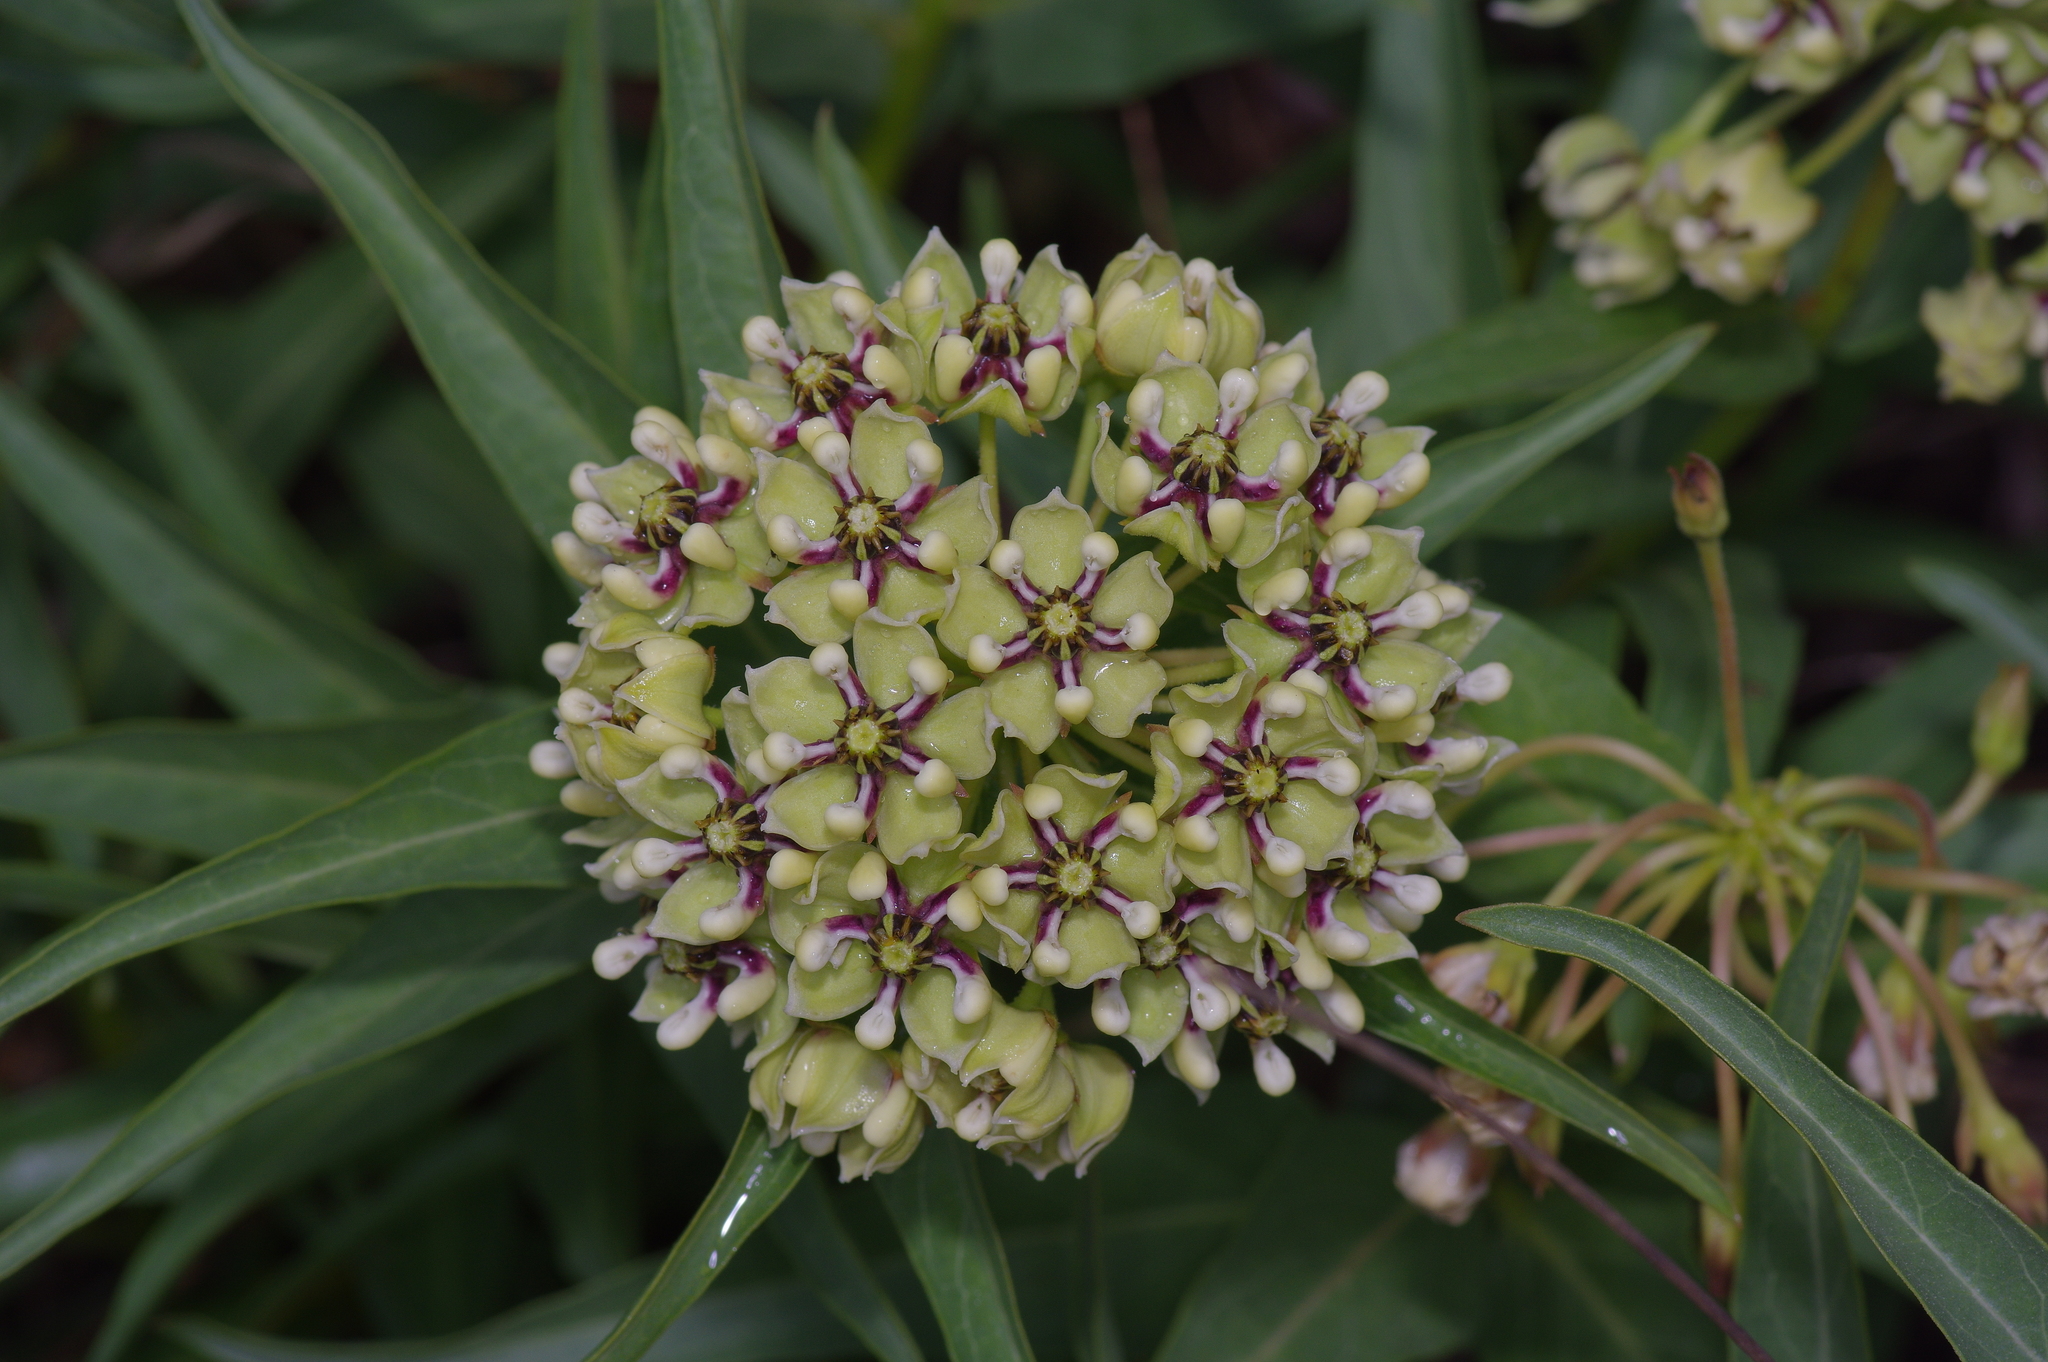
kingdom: Plantae
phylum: Tracheophyta
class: Magnoliopsida
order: Gentianales
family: Apocynaceae
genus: Asclepias
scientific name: Asclepias asperula
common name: Antelope horns
